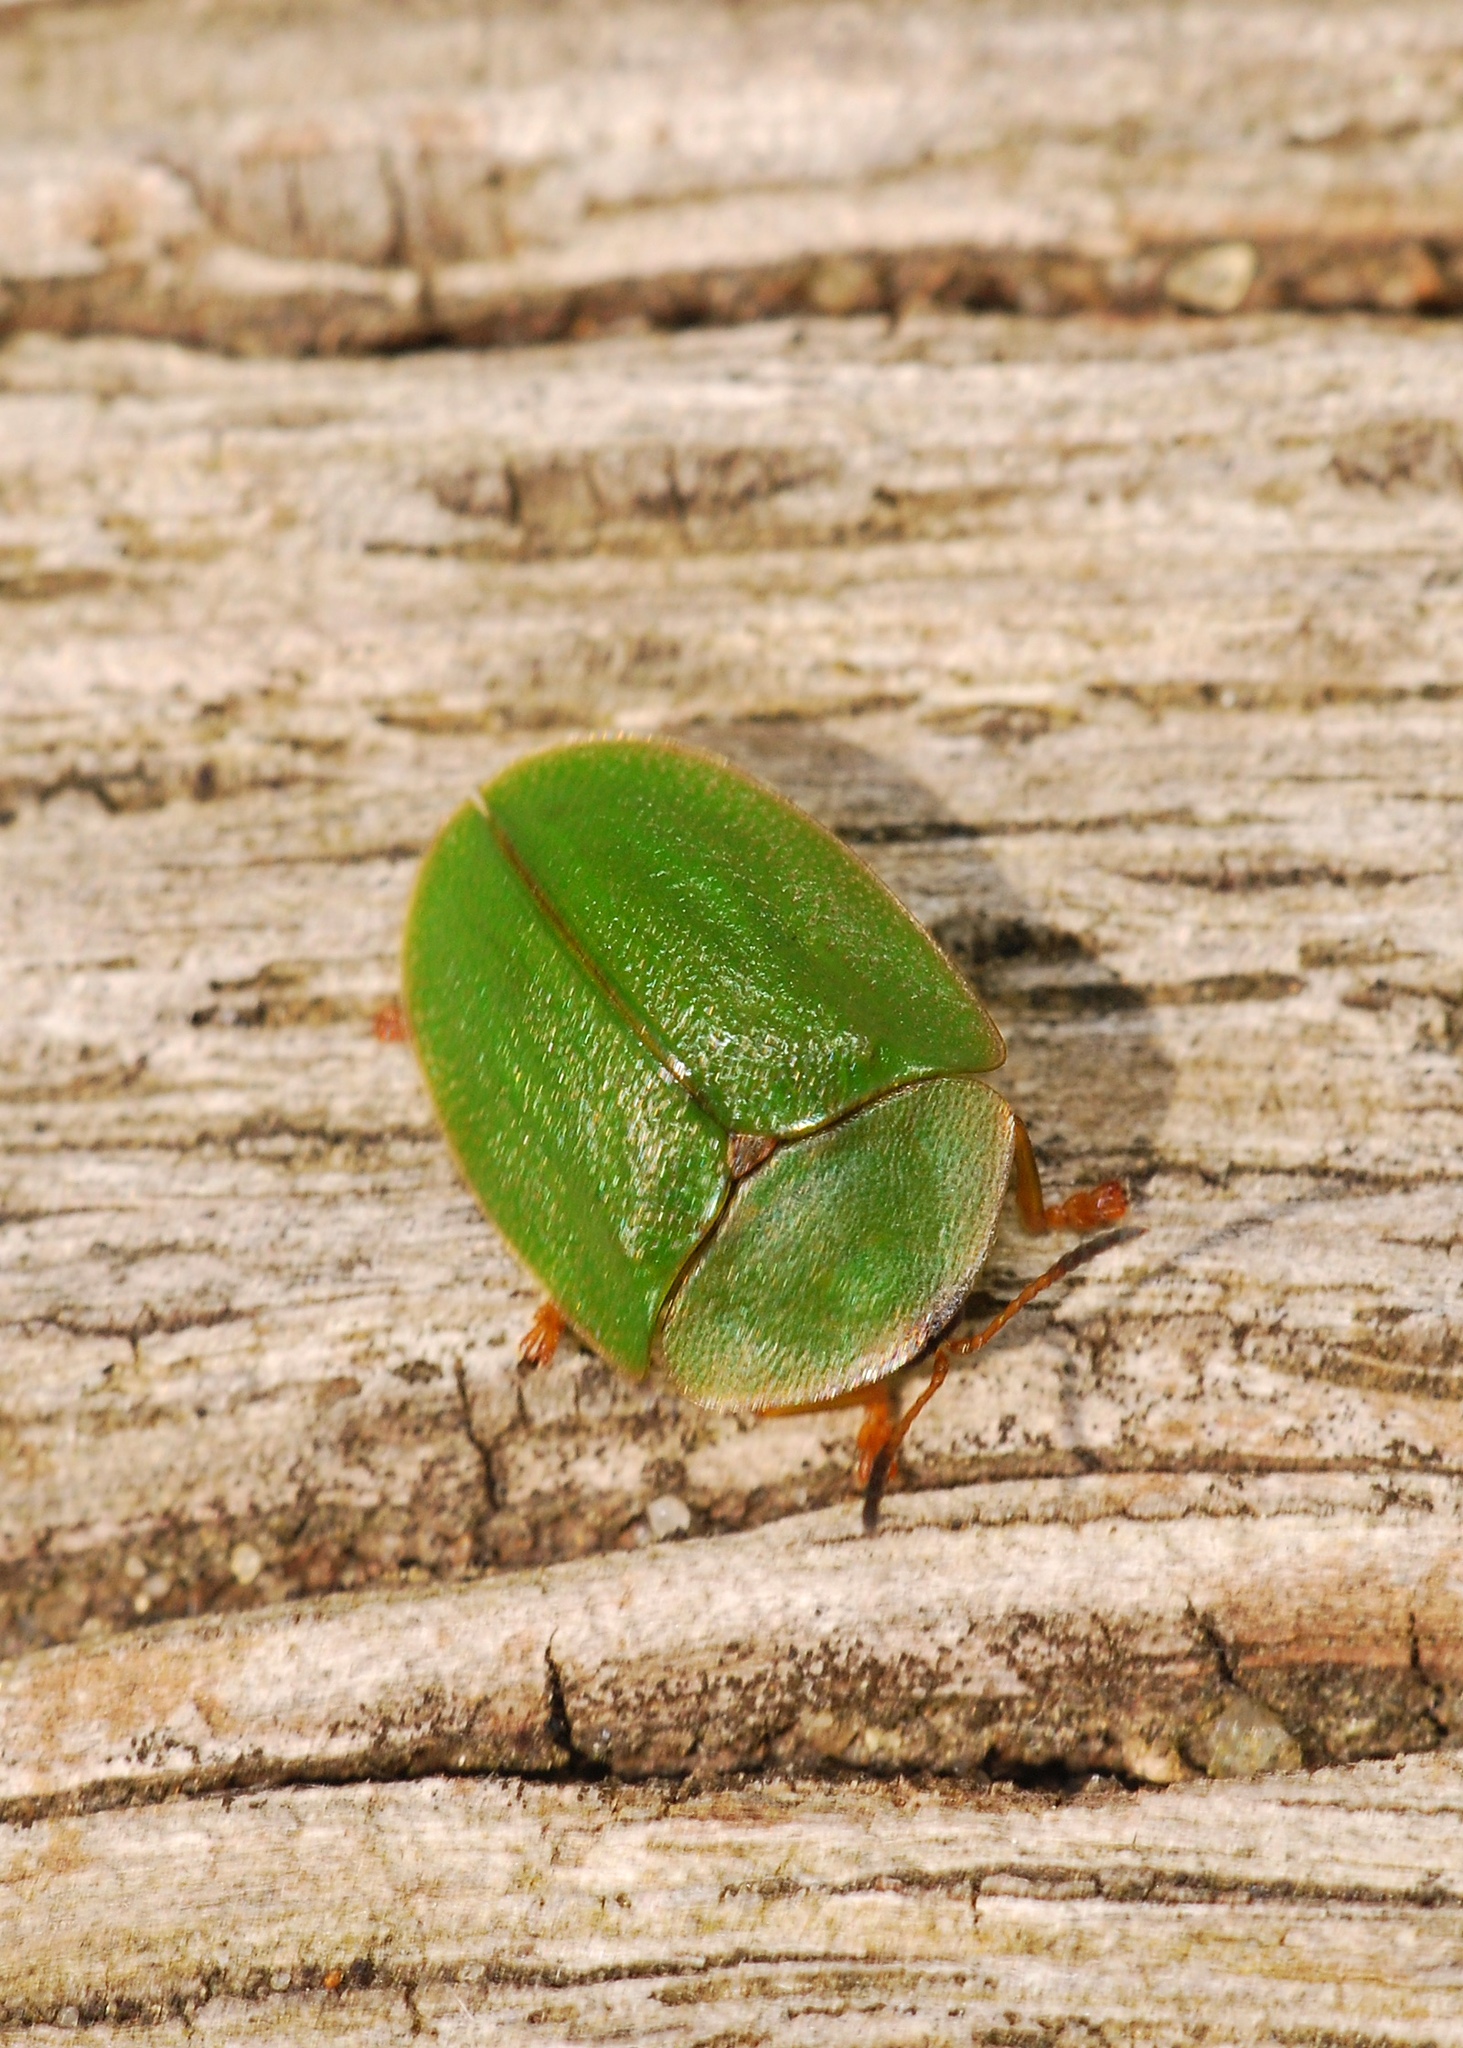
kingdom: Animalia
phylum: Arthropoda
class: Insecta
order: Coleoptera
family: Chrysomelidae
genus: Cassida
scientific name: Cassida viridis
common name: Green tortoise beetle
